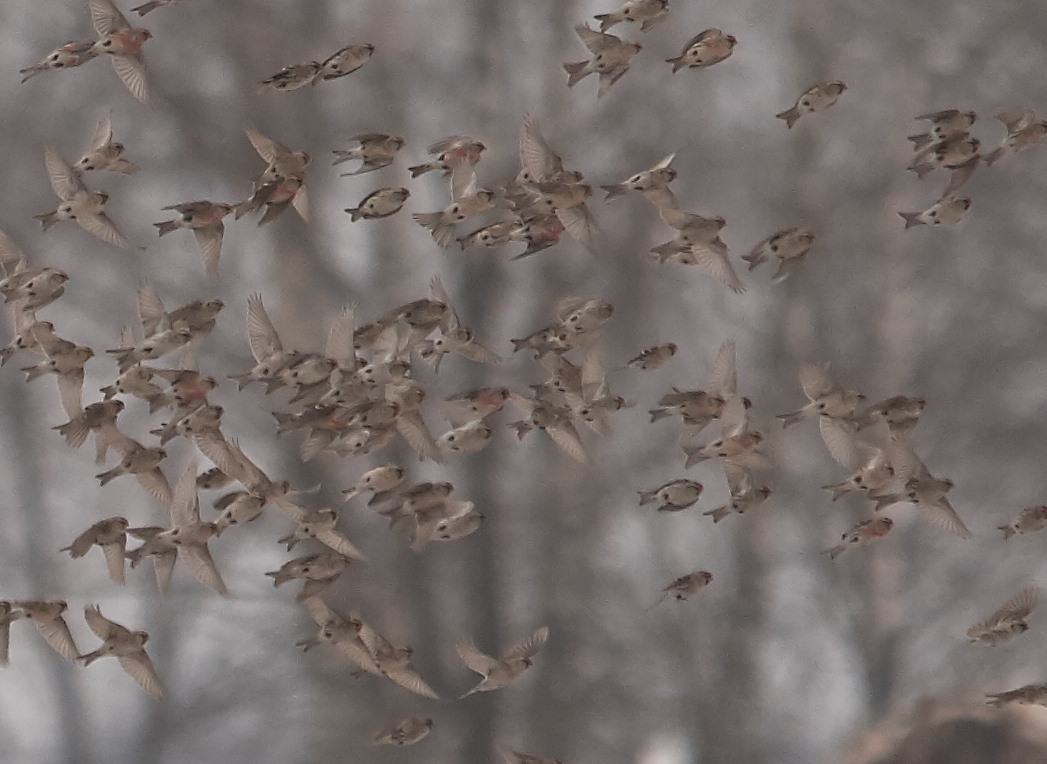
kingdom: Animalia
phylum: Chordata
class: Aves
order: Passeriformes
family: Fringillidae
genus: Acanthis
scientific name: Acanthis flammea
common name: Common redpoll
